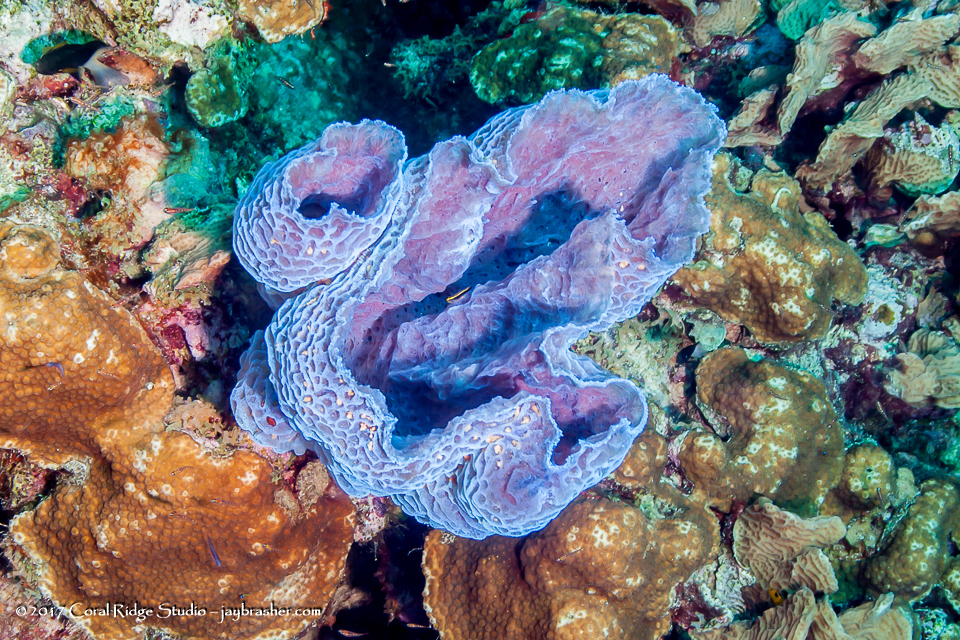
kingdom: Animalia
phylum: Porifera
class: Demospongiae
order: Haplosclerida
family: Callyspongiidae
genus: Callyspongia
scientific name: Callyspongia plicifera
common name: Azure vase sponge
